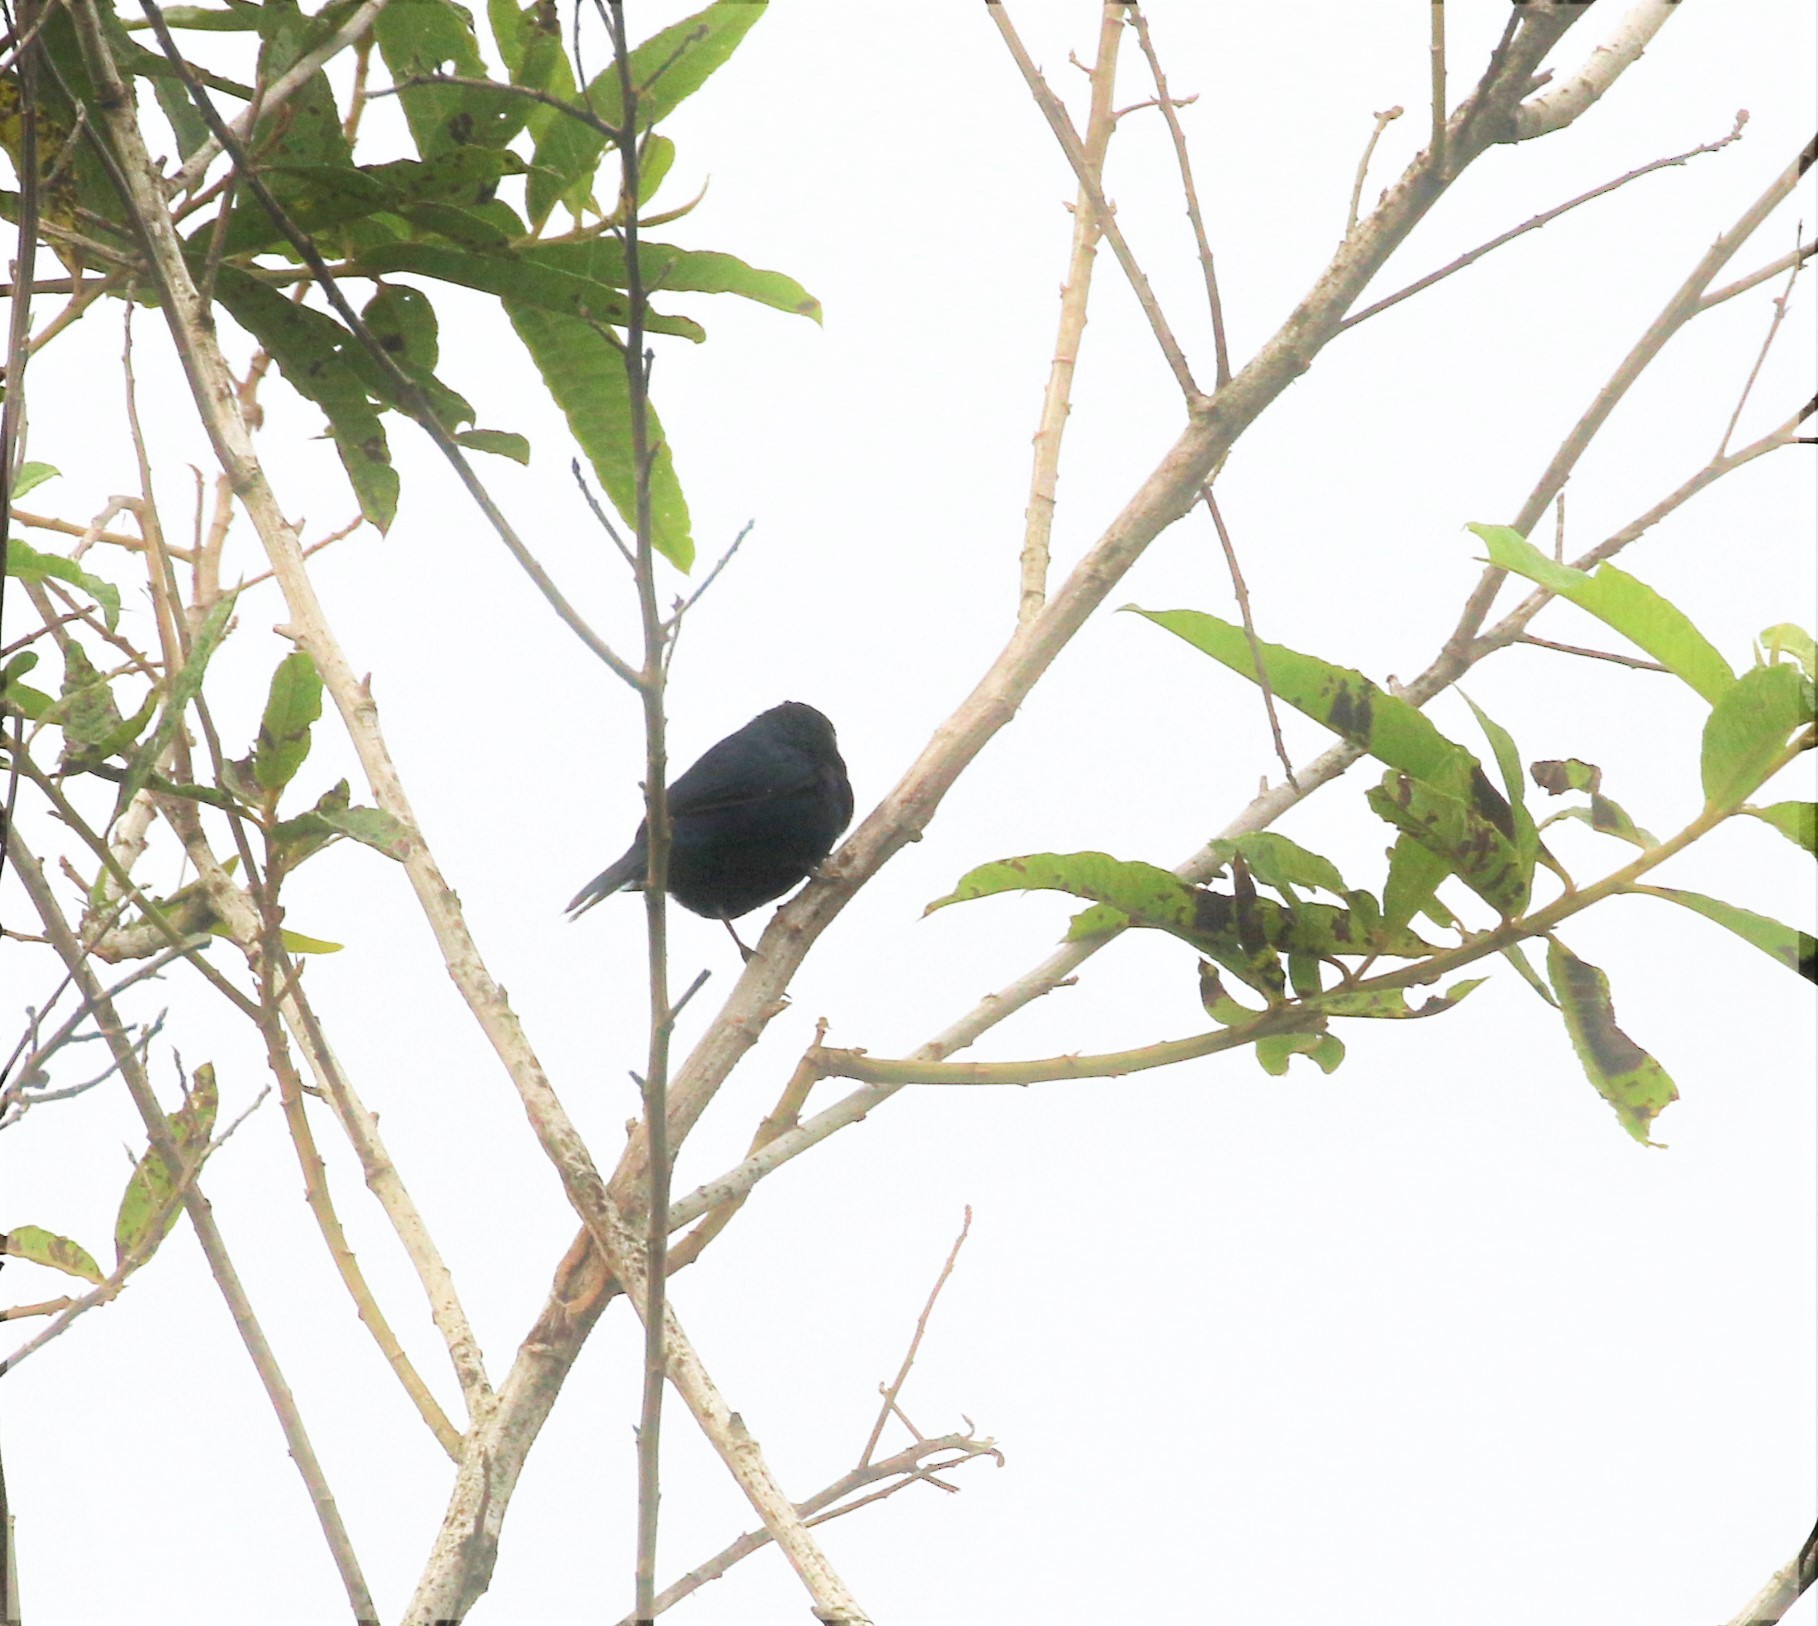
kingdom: Animalia
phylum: Chordata
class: Aves
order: Passeriformes
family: Thraupidae
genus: Volatinia
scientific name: Volatinia jacarina
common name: Blue-black grassquit
